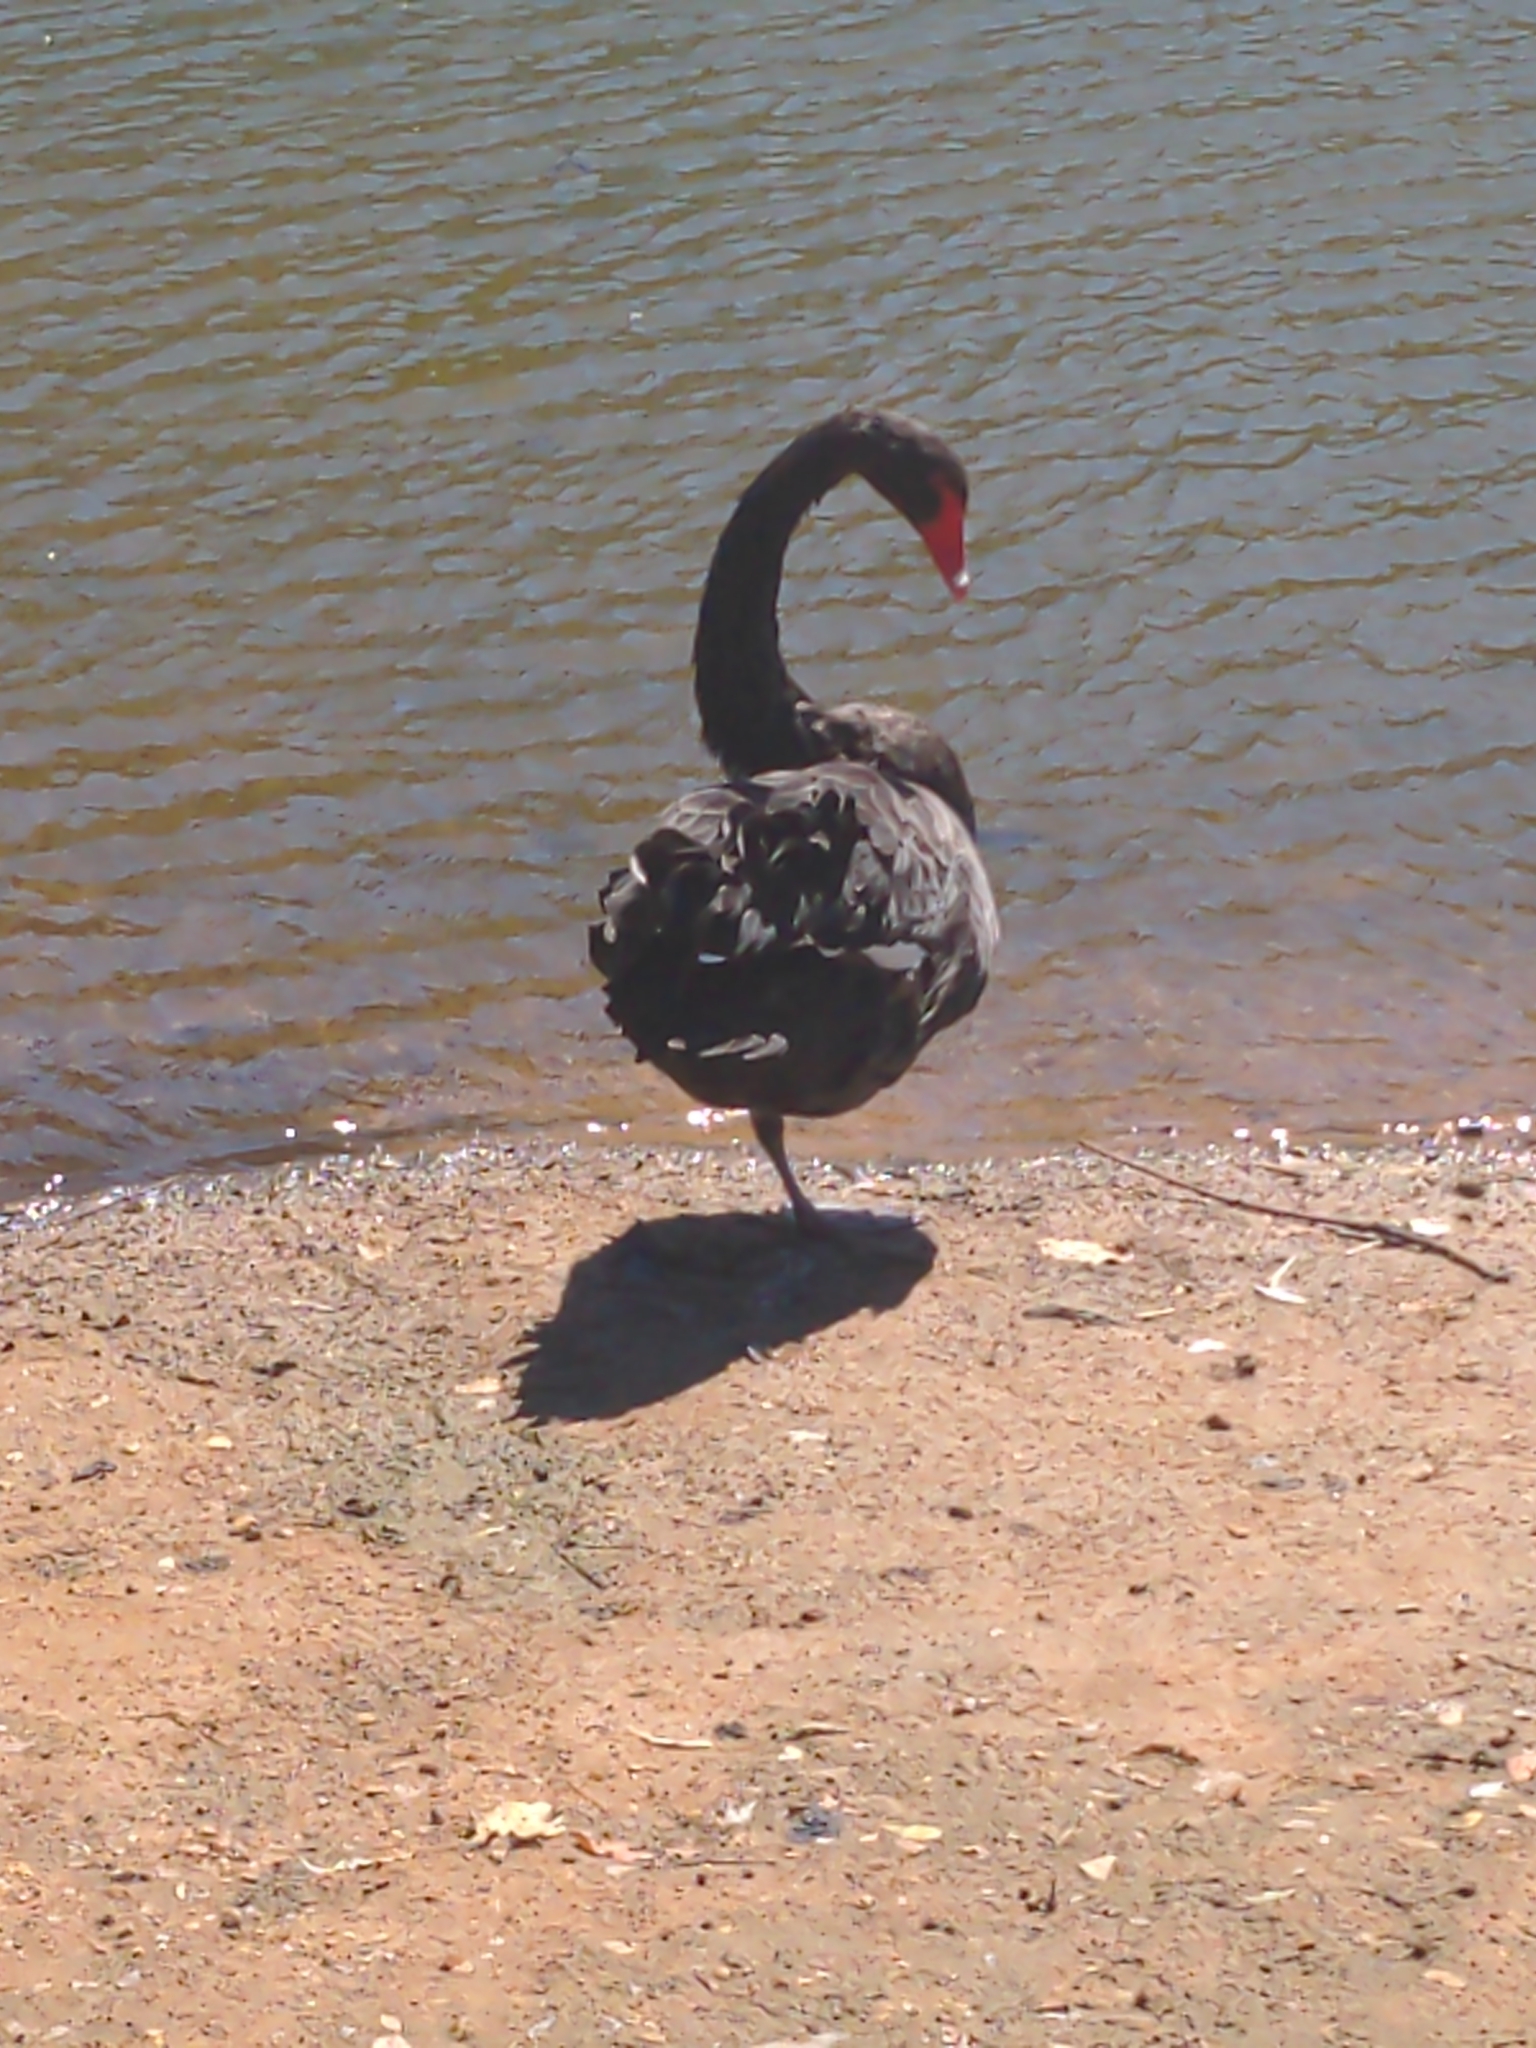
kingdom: Animalia
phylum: Chordata
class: Aves
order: Anseriformes
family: Anatidae
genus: Cygnus
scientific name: Cygnus atratus
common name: Black swan
